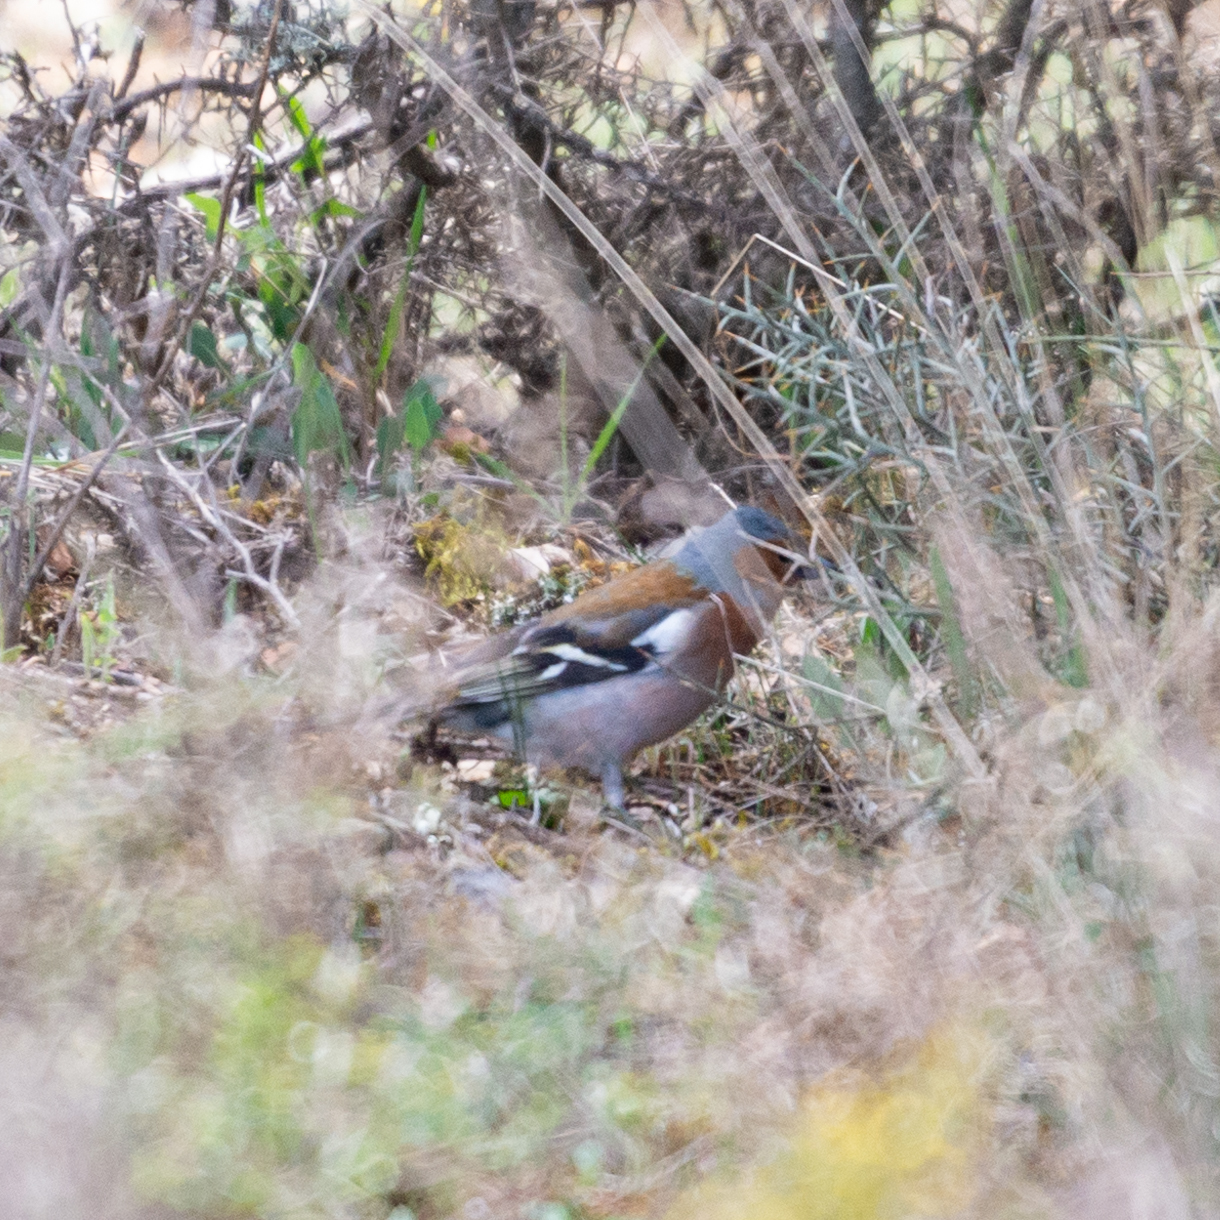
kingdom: Animalia
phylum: Chordata
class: Aves
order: Passeriformes
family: Fringillidae
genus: Fringilla
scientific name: Fringilla coelebs
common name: Common chaffinch
